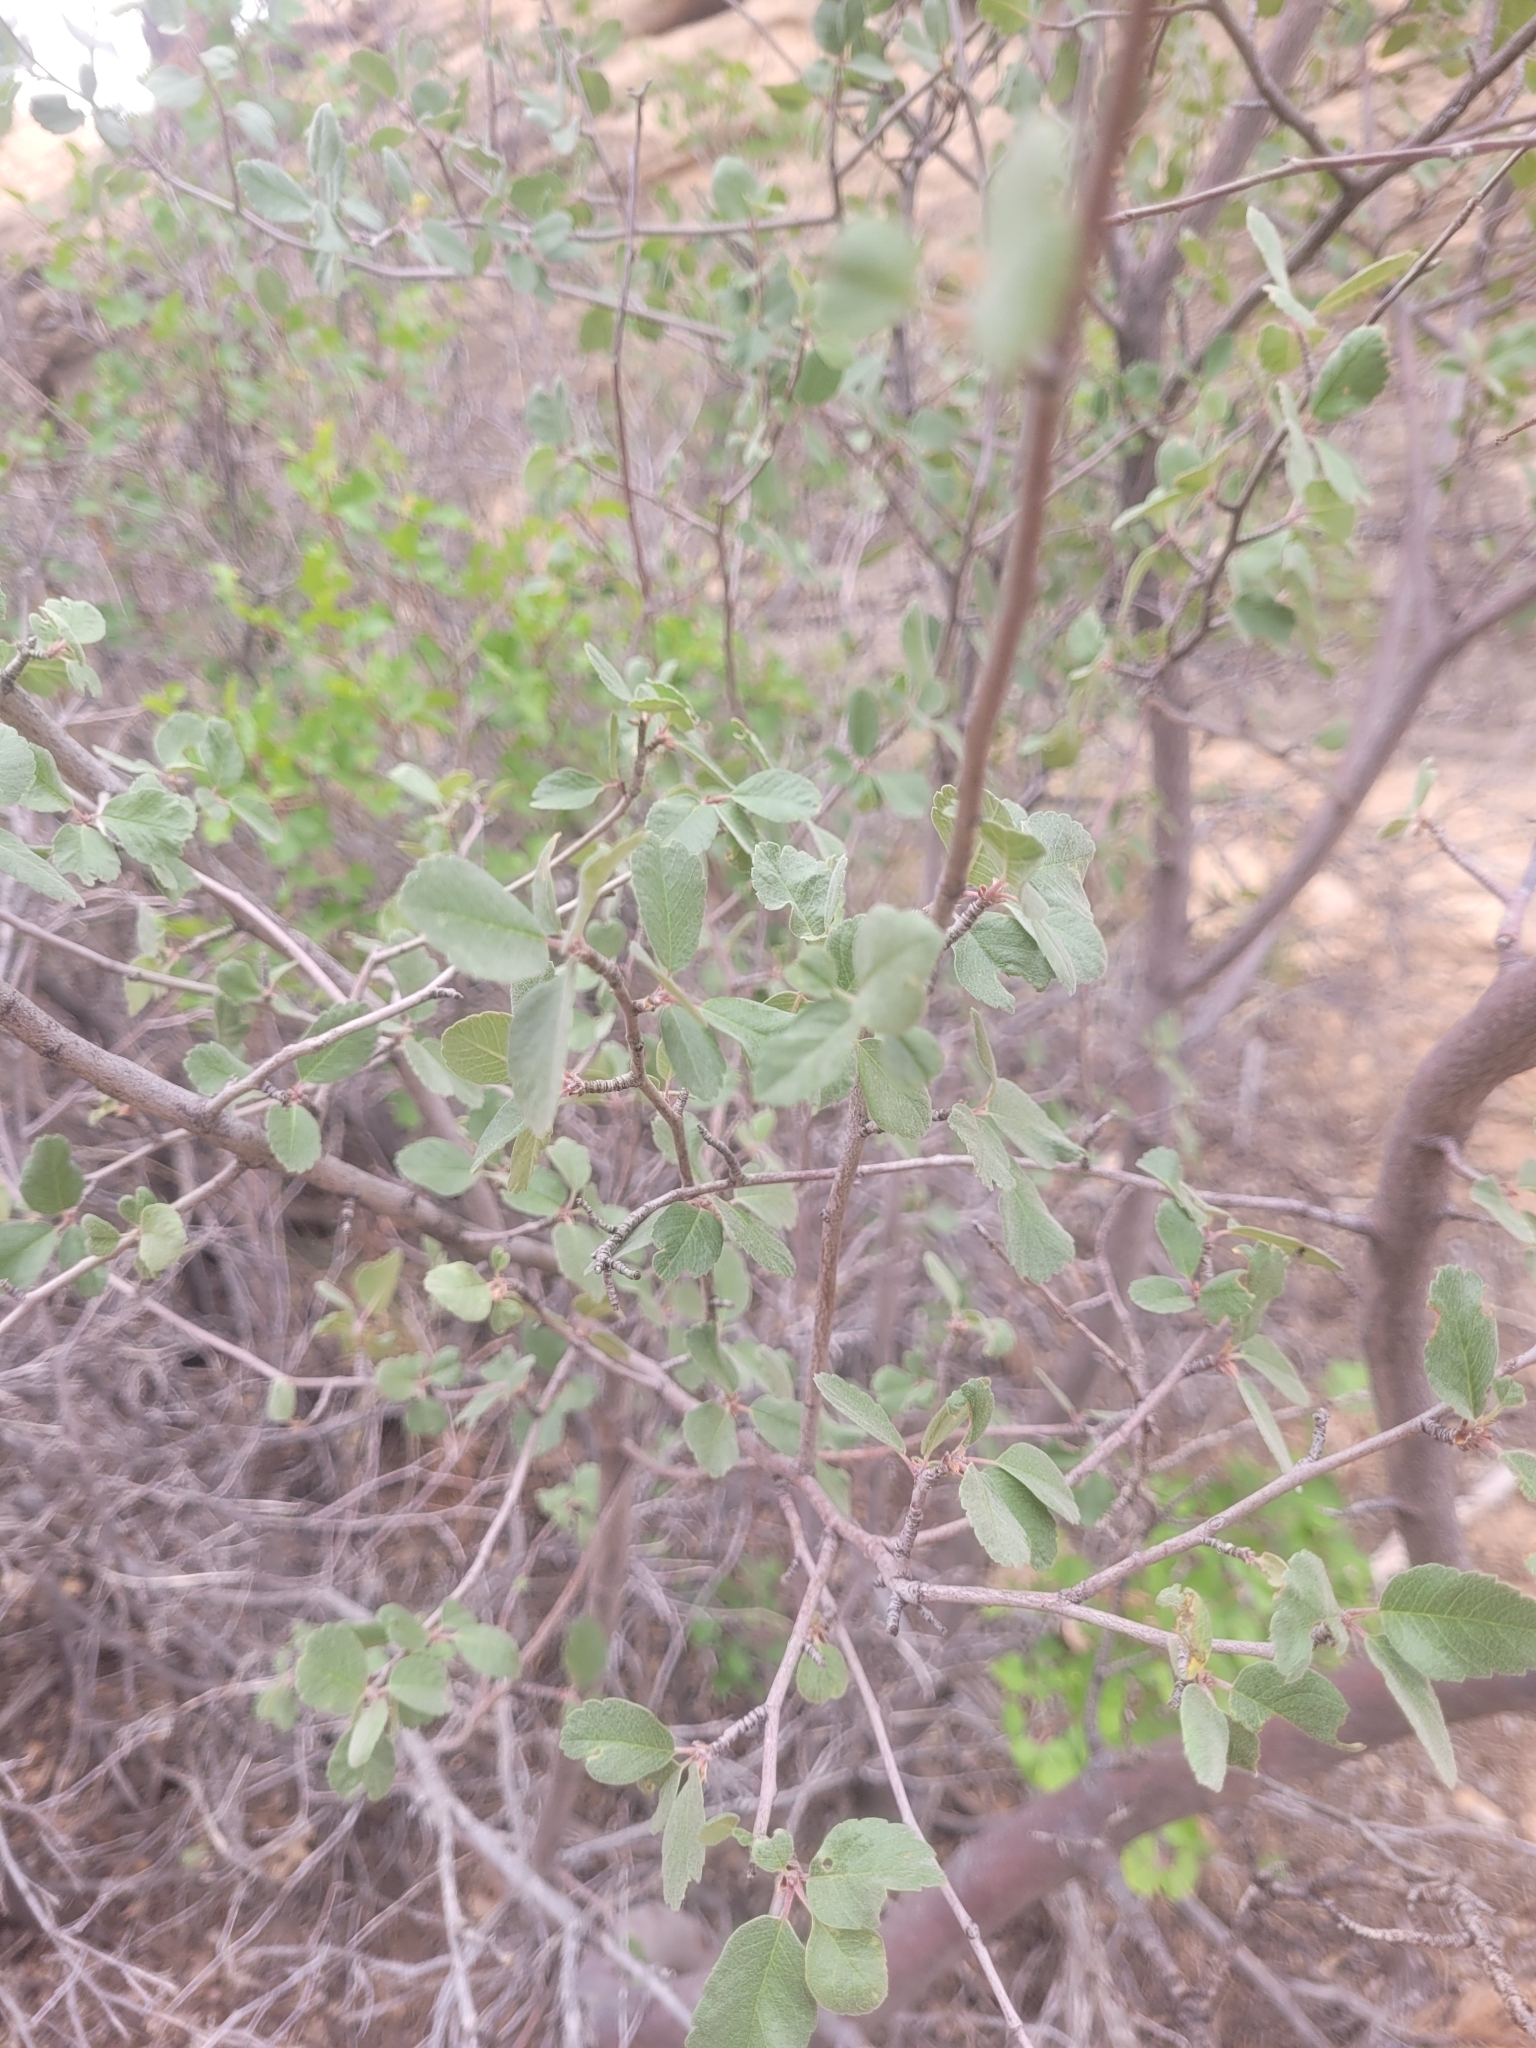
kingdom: Plantae
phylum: Tracheophyta
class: Magnoliopsida
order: Rosales
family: Rosaceae
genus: Amelanchier
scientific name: Amelanchier utahensis
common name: Utah serviceberry
